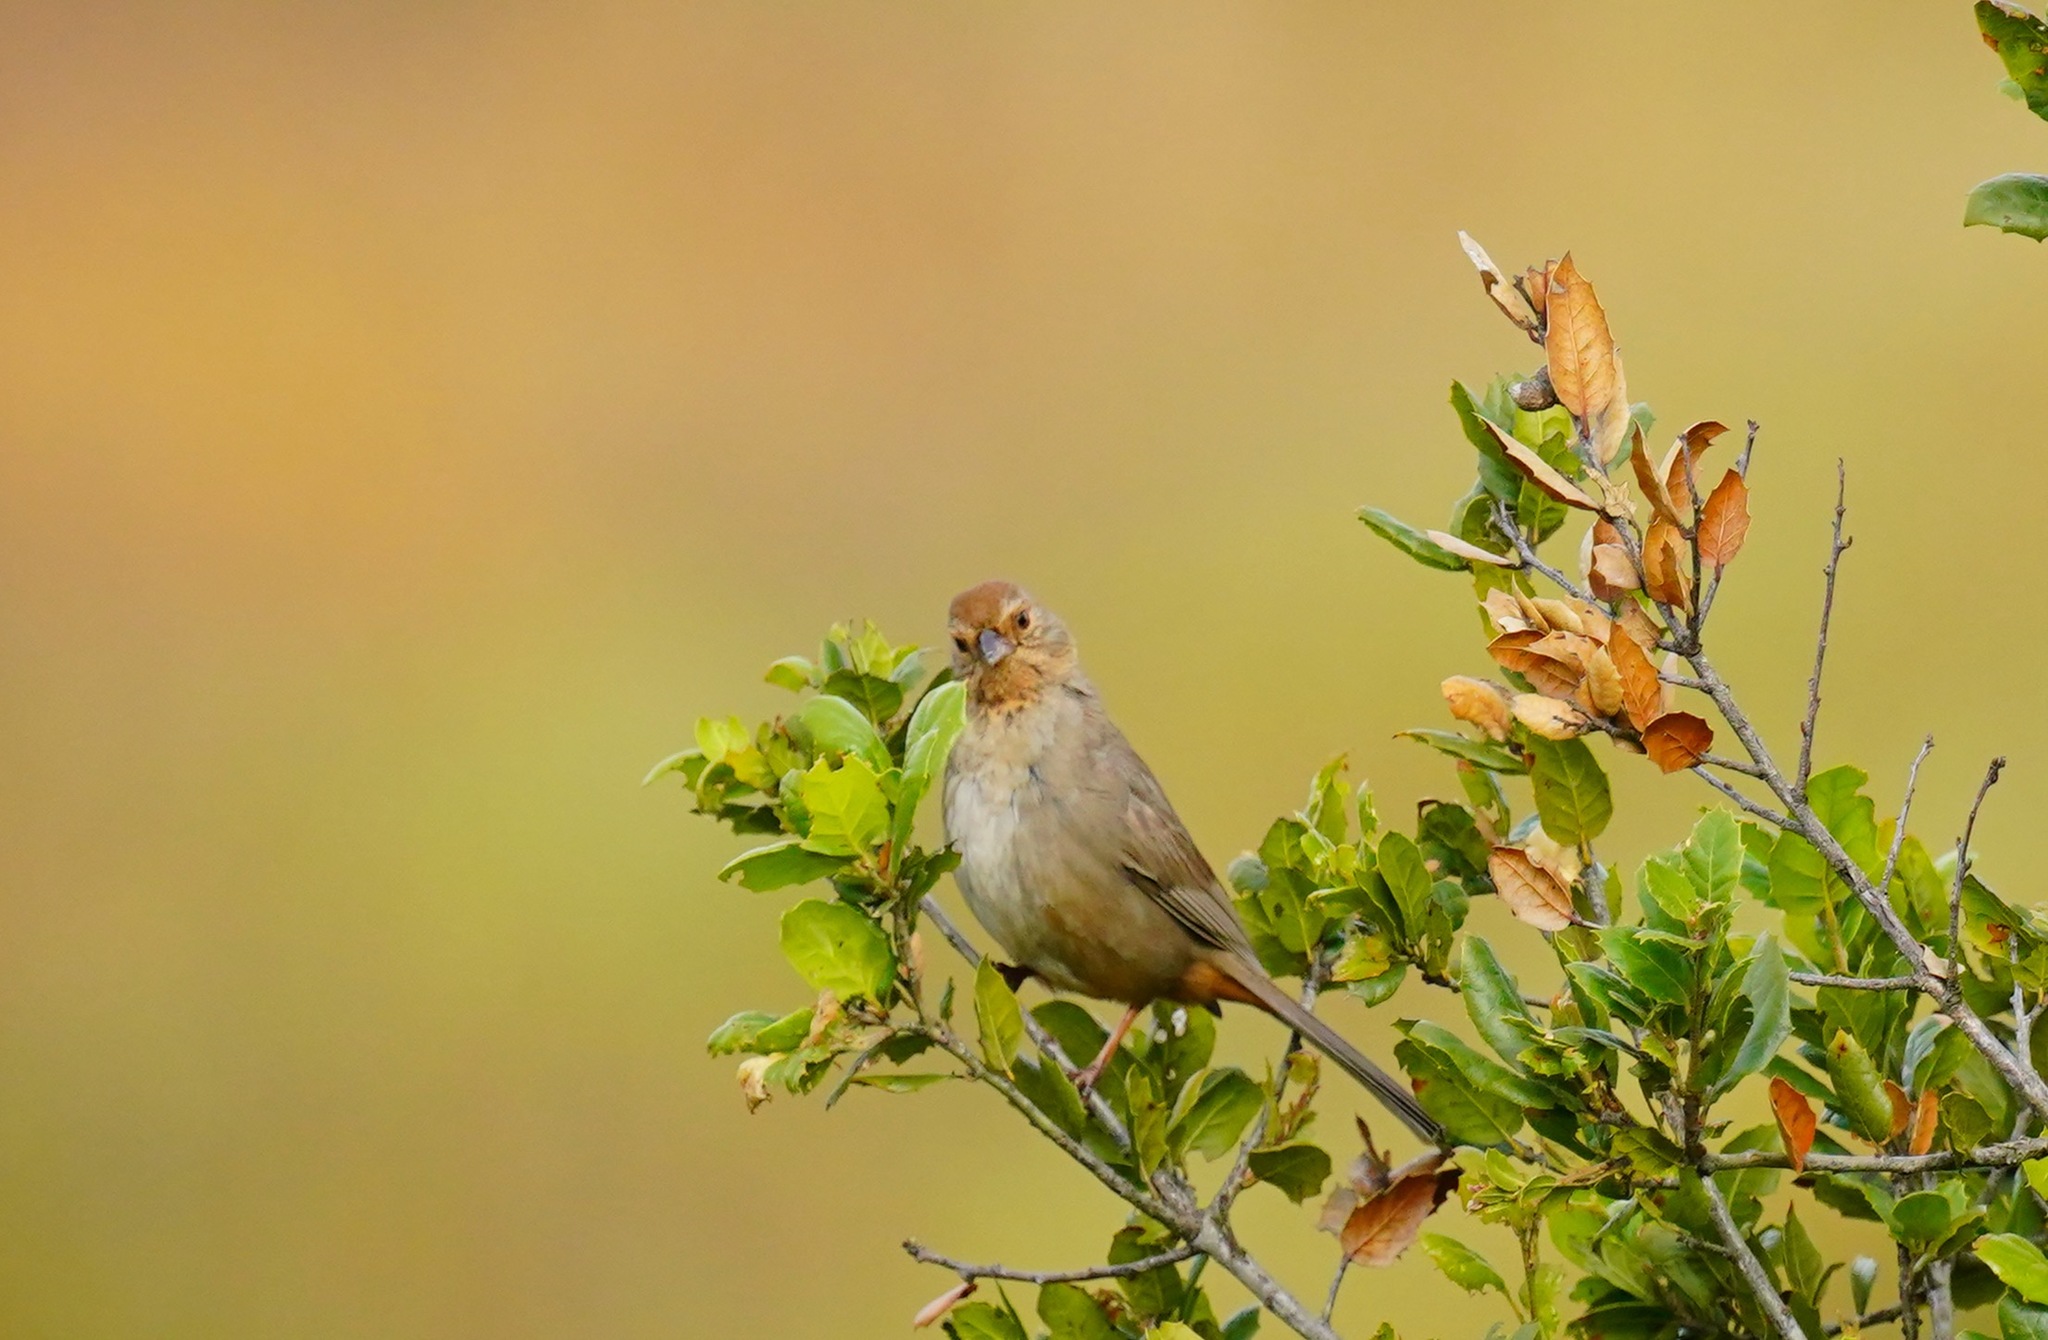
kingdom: Animalia
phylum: Chordata
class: Aves
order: Passeriformes
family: Passerellidae
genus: Melozone
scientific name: Melozone crissalis
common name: California towhee
